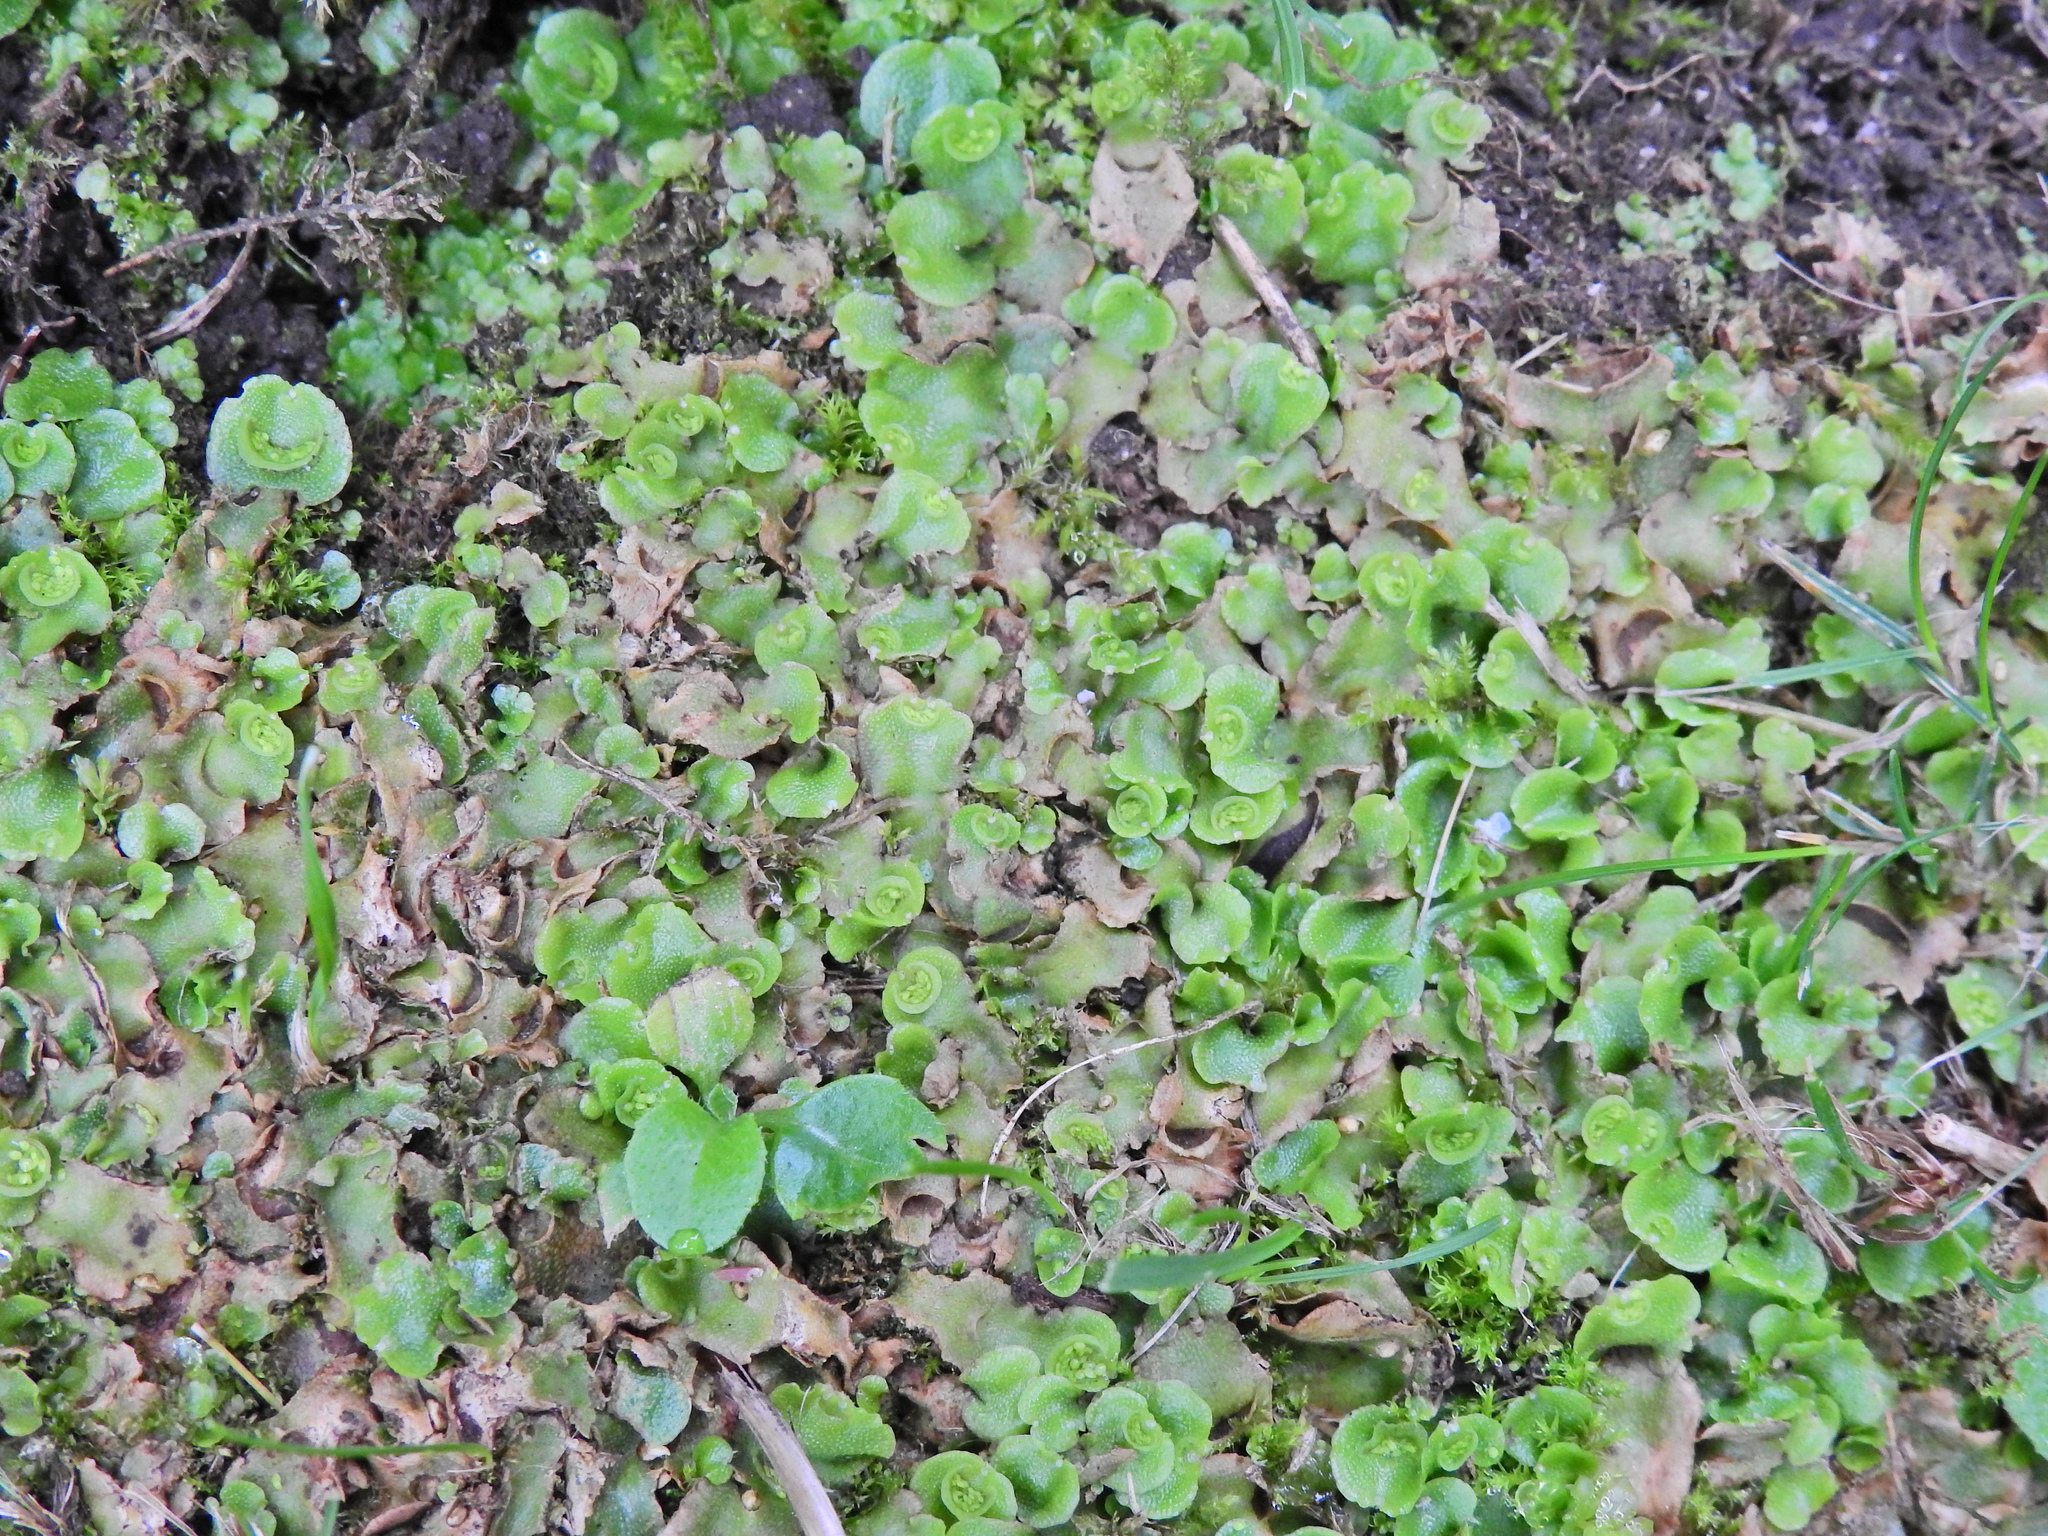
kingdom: Plantae
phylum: Marchantiophyta
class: Marchantiopsida
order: Lunulariales
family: Lunulariaceae
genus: Lunularia
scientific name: Lunularia cruciata
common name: Crescent-cup liverwort
